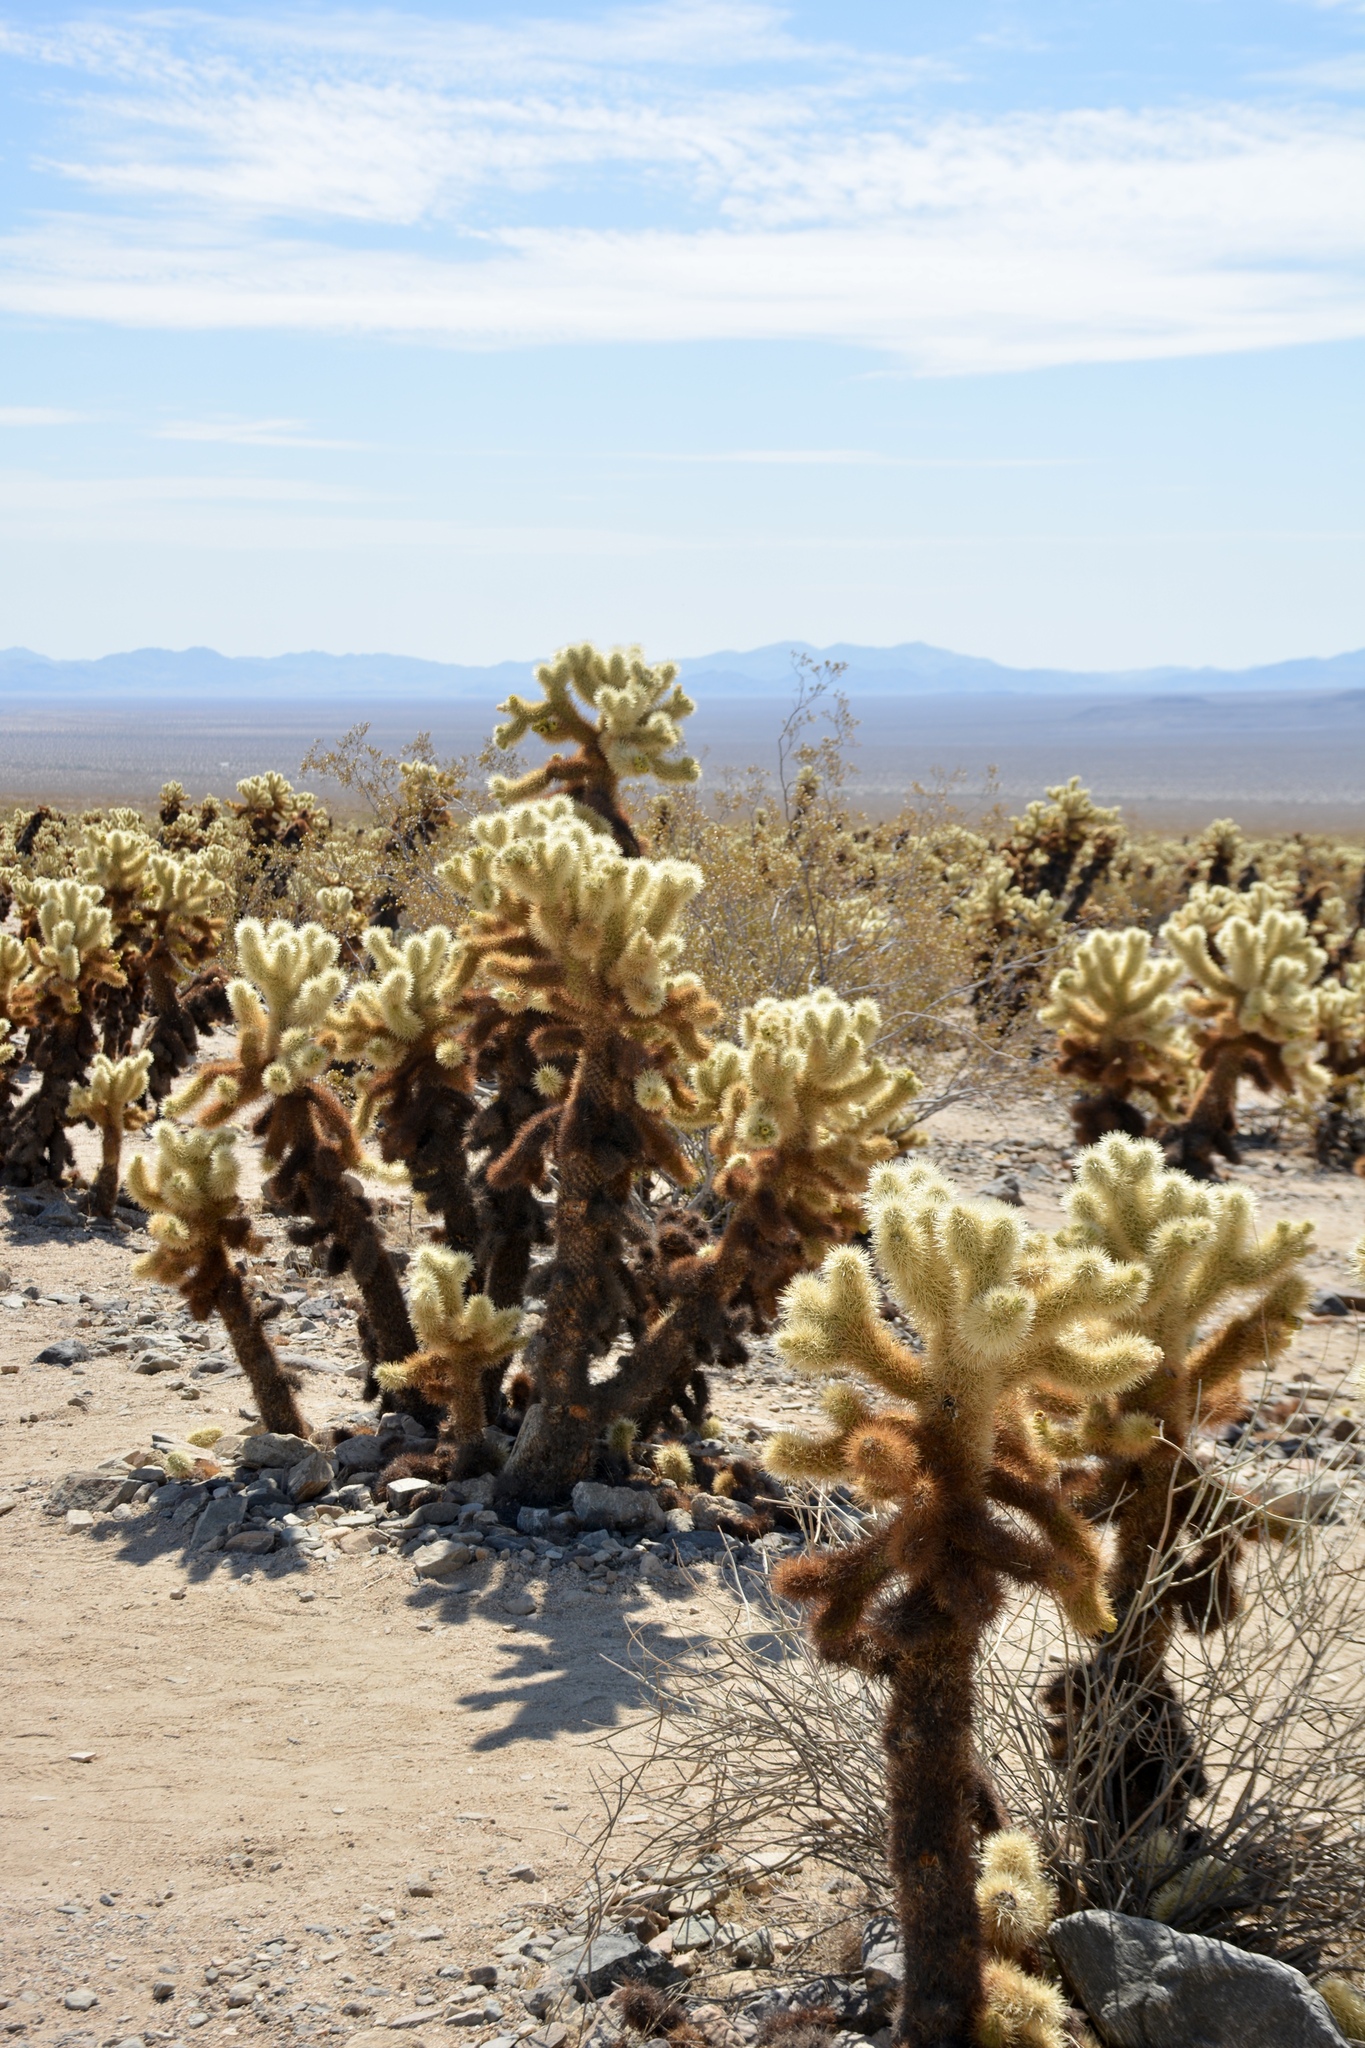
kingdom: Plantae
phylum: Tracheophyta
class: Magnoliopsida
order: Caryophyllales
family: Cactaceae
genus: Cylindropuntia
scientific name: Cylindropuntia fosbergii
